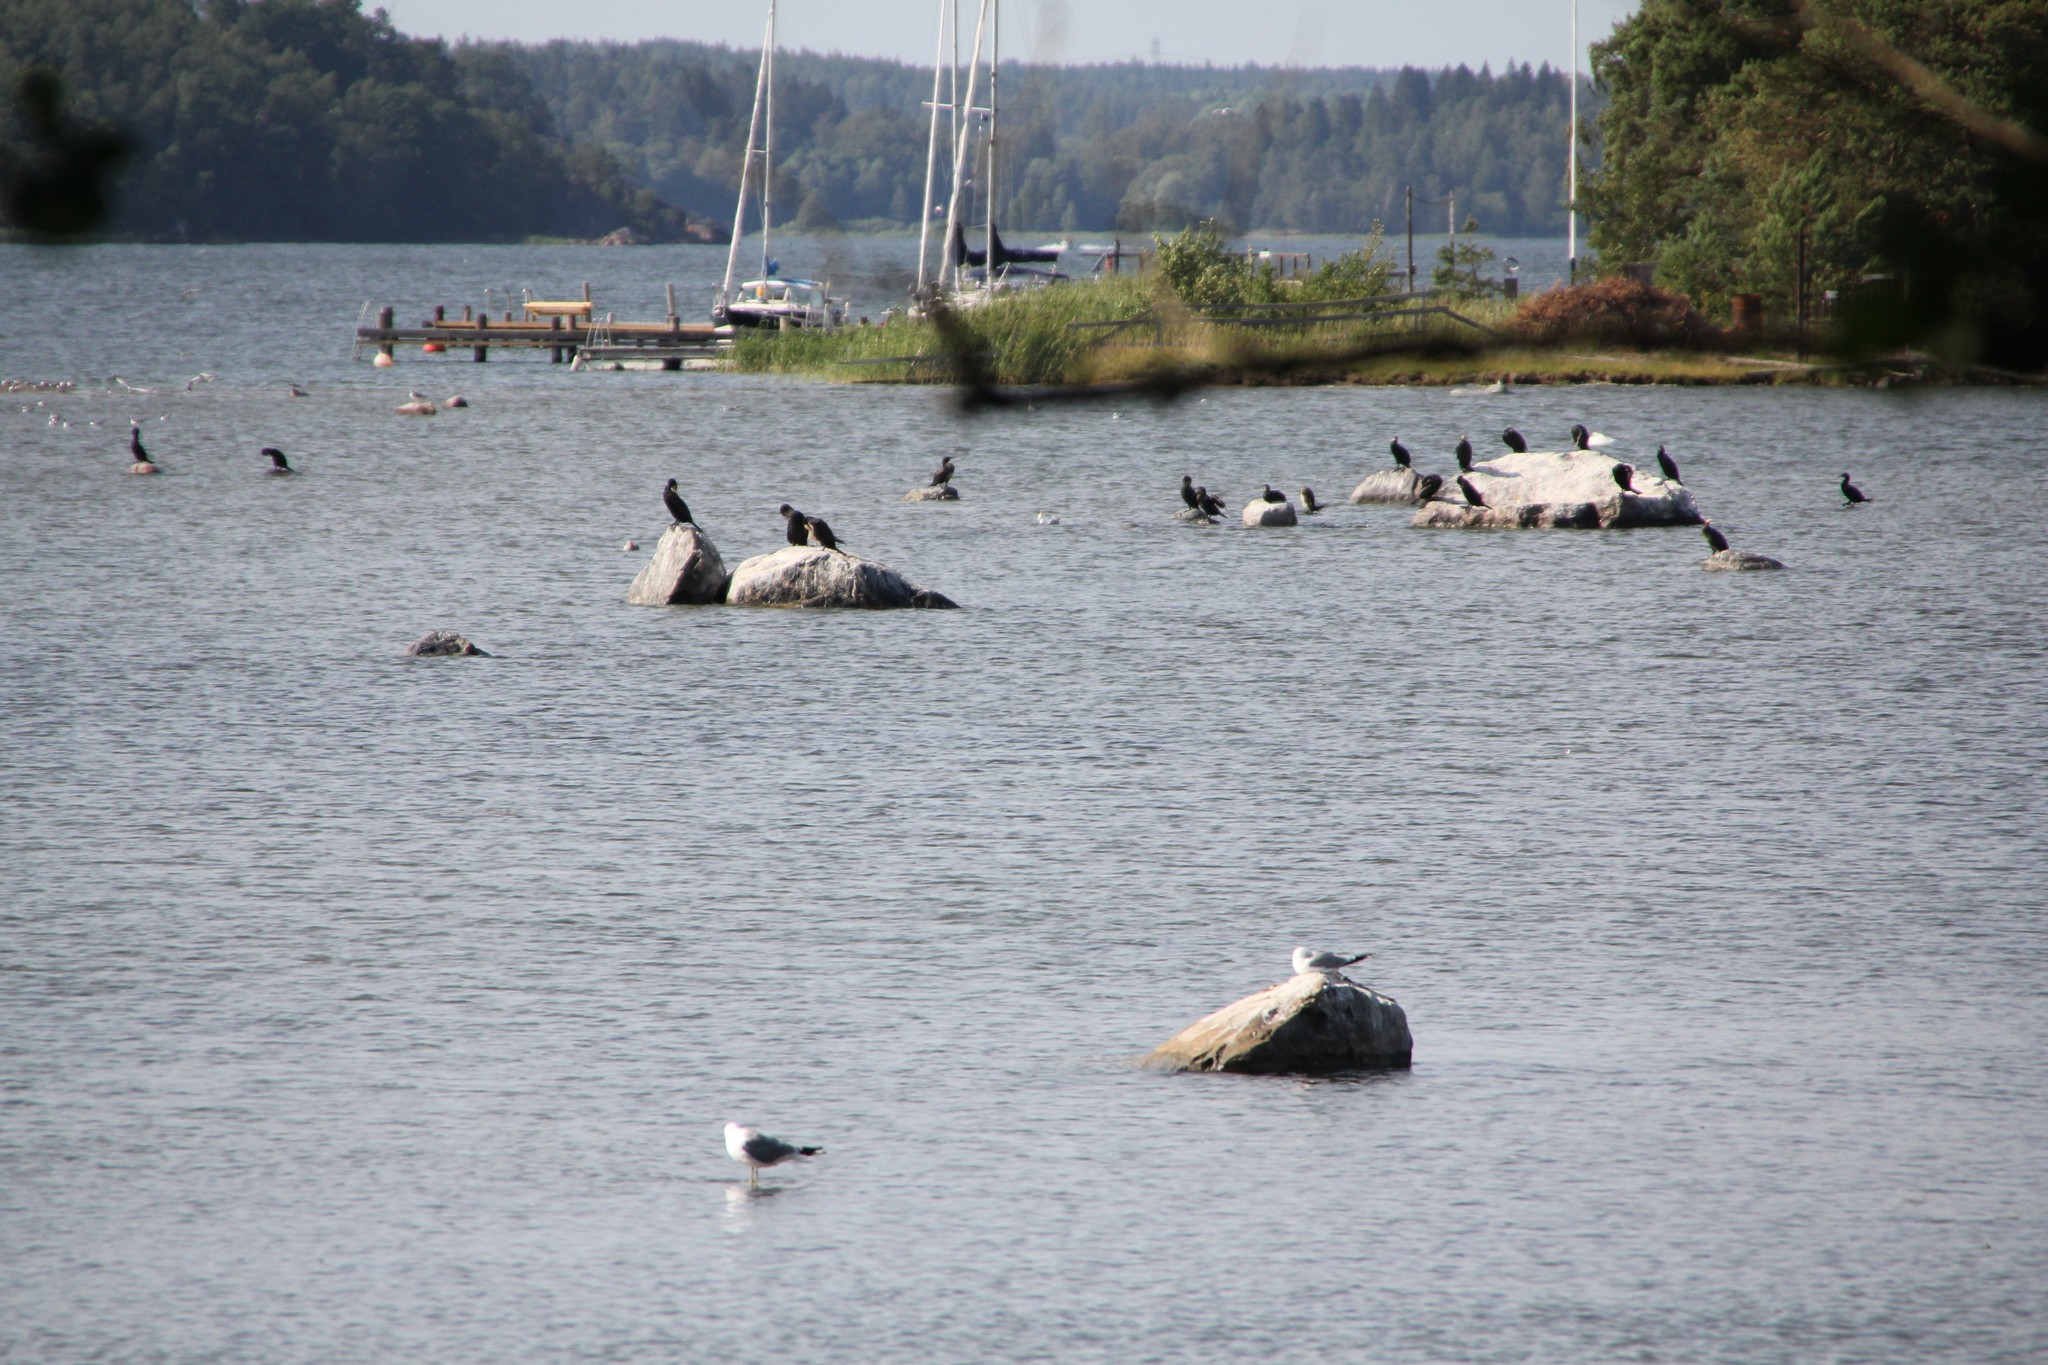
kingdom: Animalia
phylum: Chordata
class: Aves
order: Suliformes
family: Phalacrocoracidae
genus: Phalacrocorax
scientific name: Phalacrocorax carbo
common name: Great cormorant
